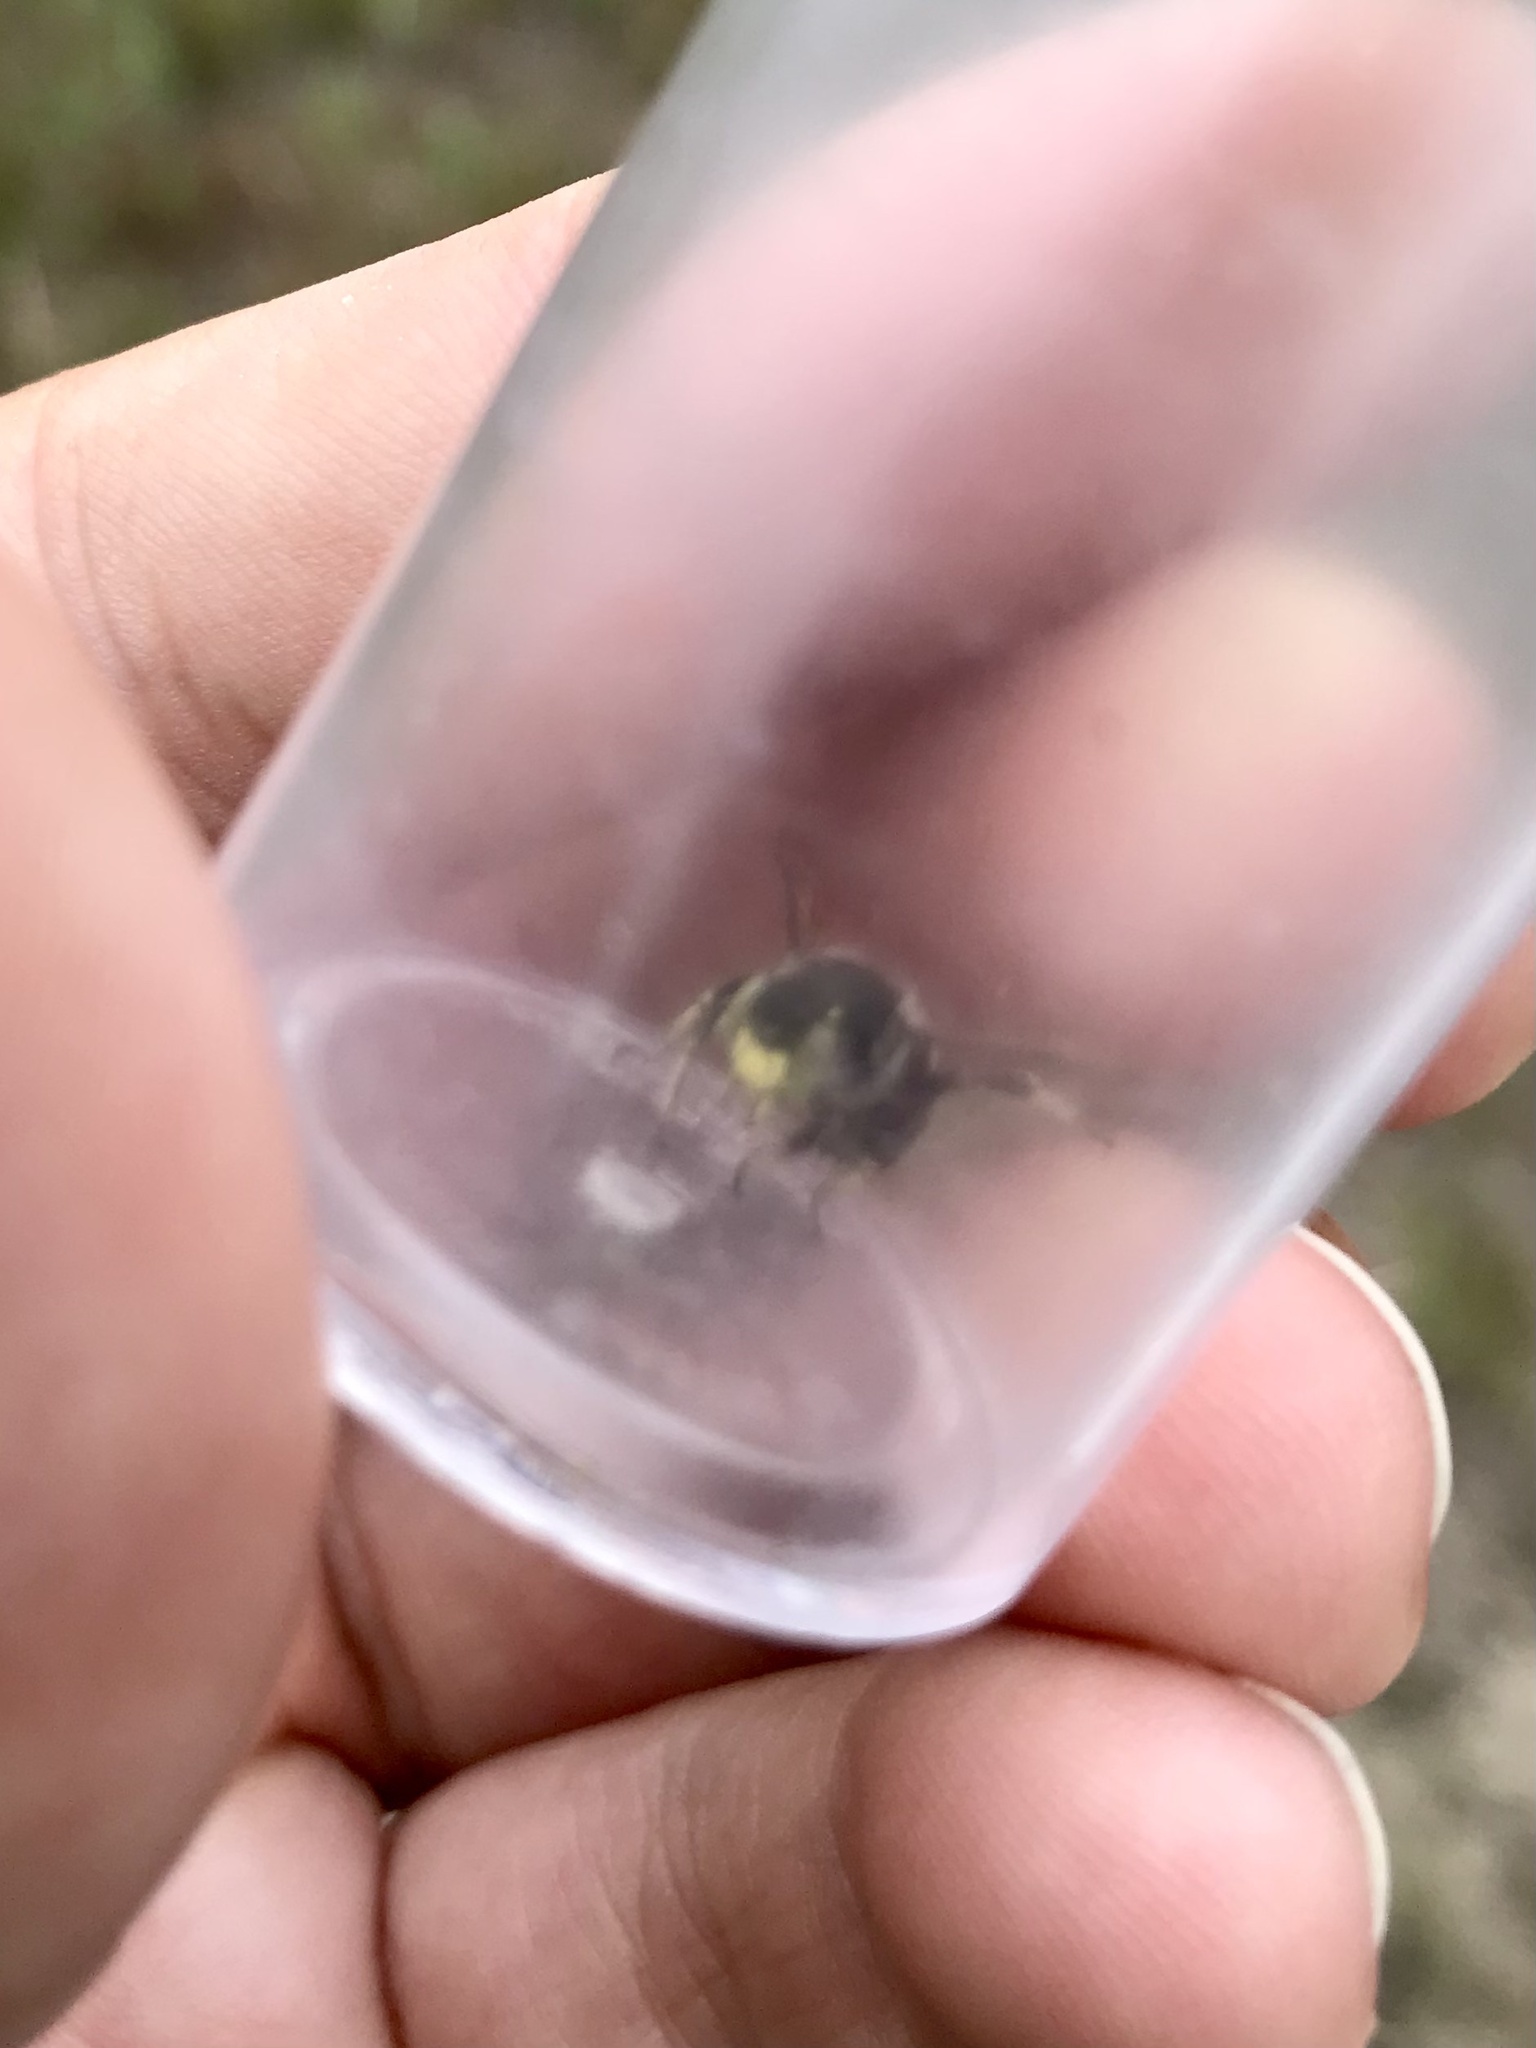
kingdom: Animalia
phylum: Arthropoda
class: Insecta
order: Hymenoptera
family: Megachilidae
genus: Anthidium
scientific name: Anthidium psoraleae
